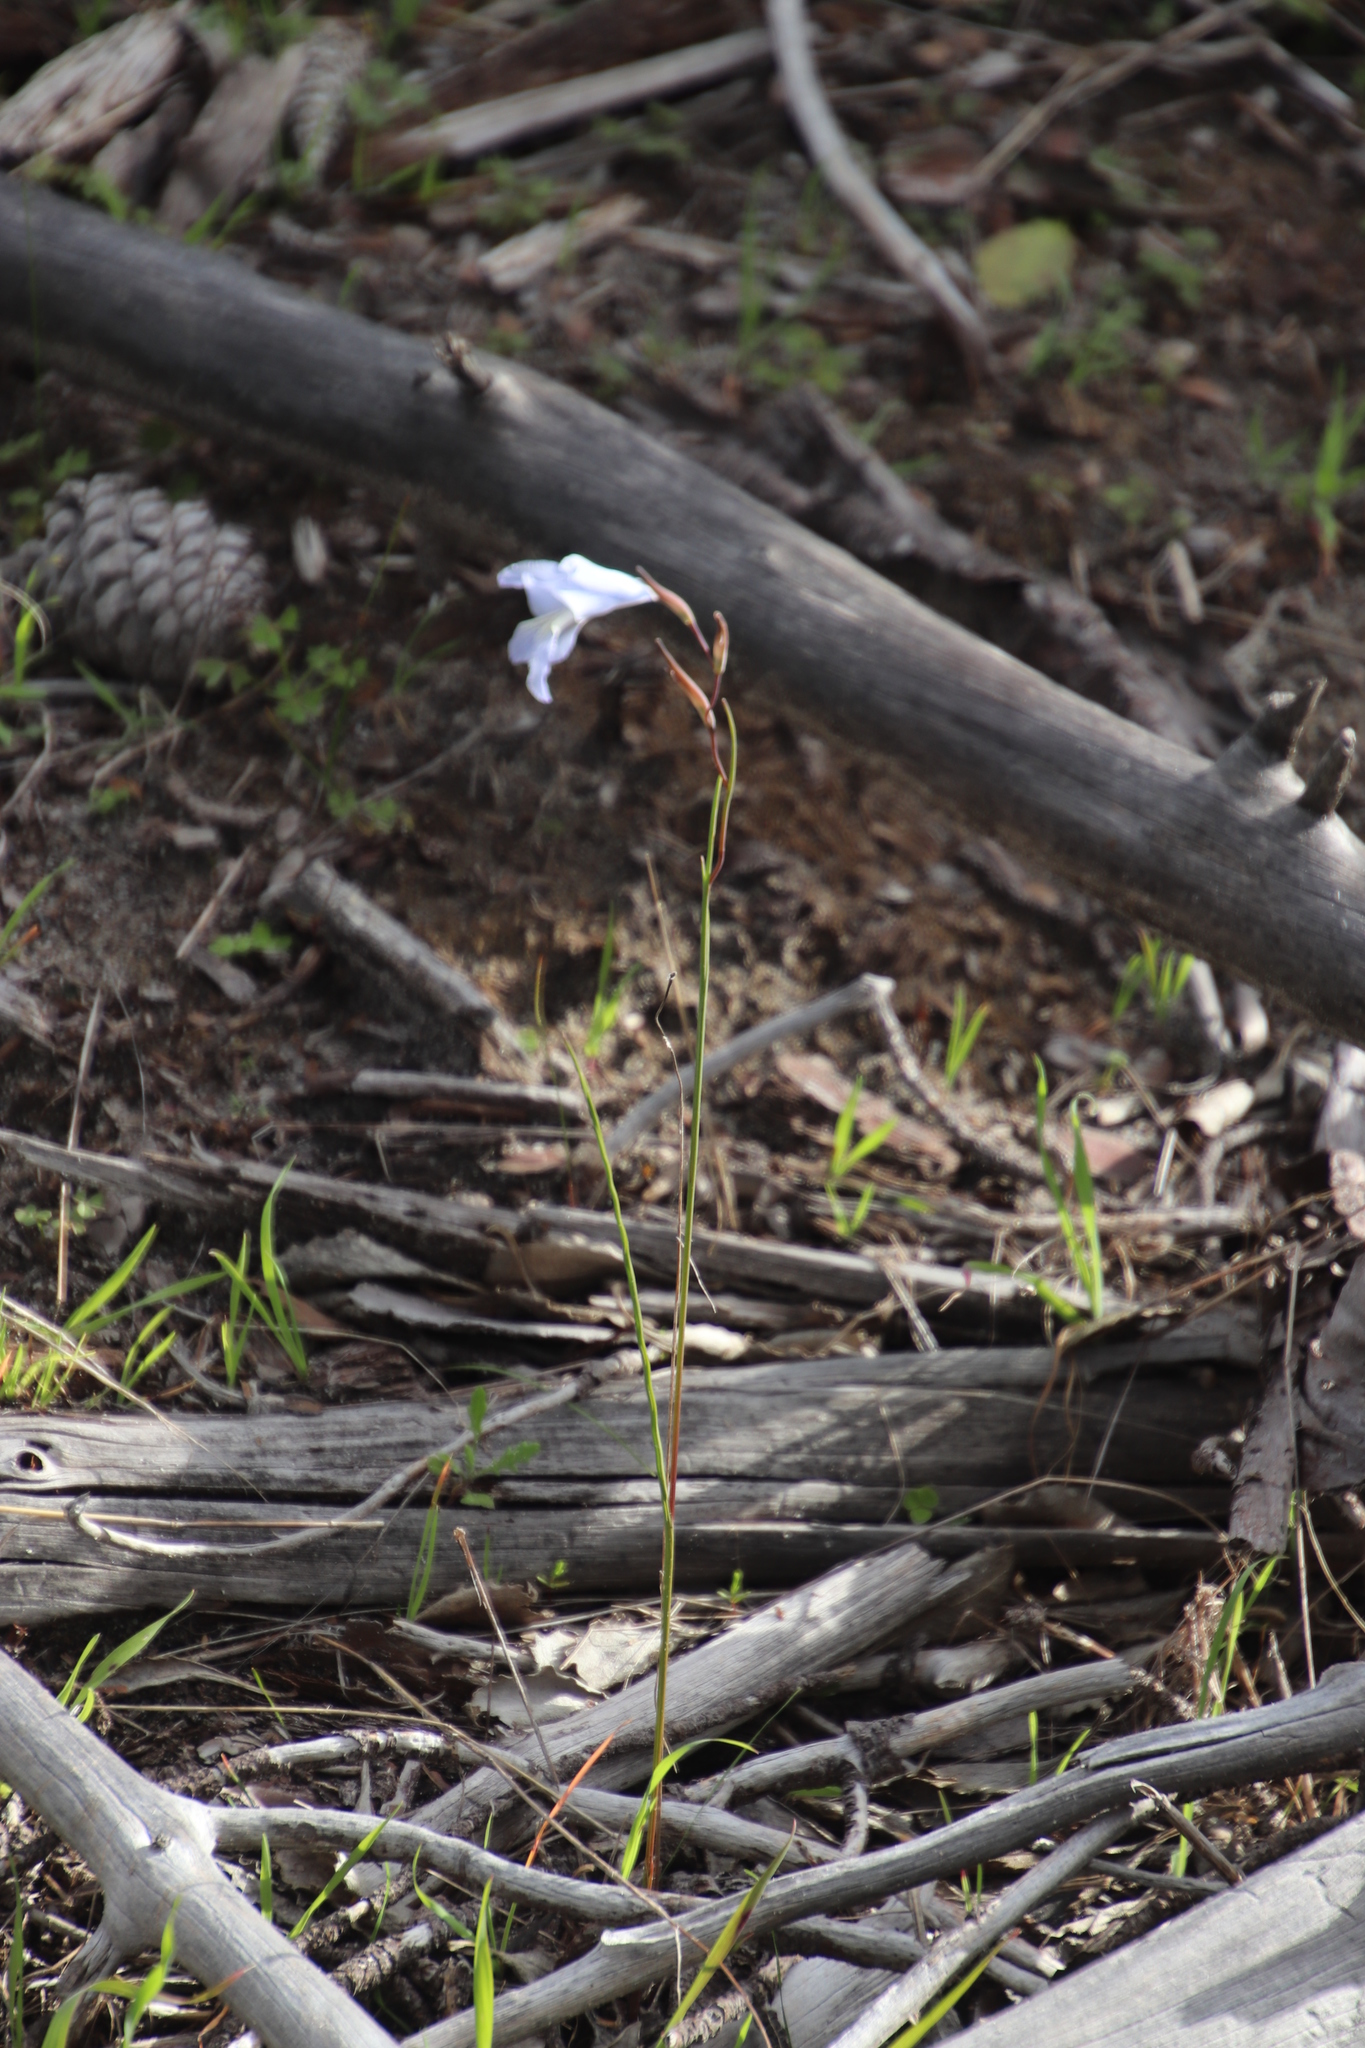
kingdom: Plantae
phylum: Tracheophyta
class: Liliopsida
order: Asparagales
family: Iridaceae
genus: Gladiolus
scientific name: Gladiolus gracilis
